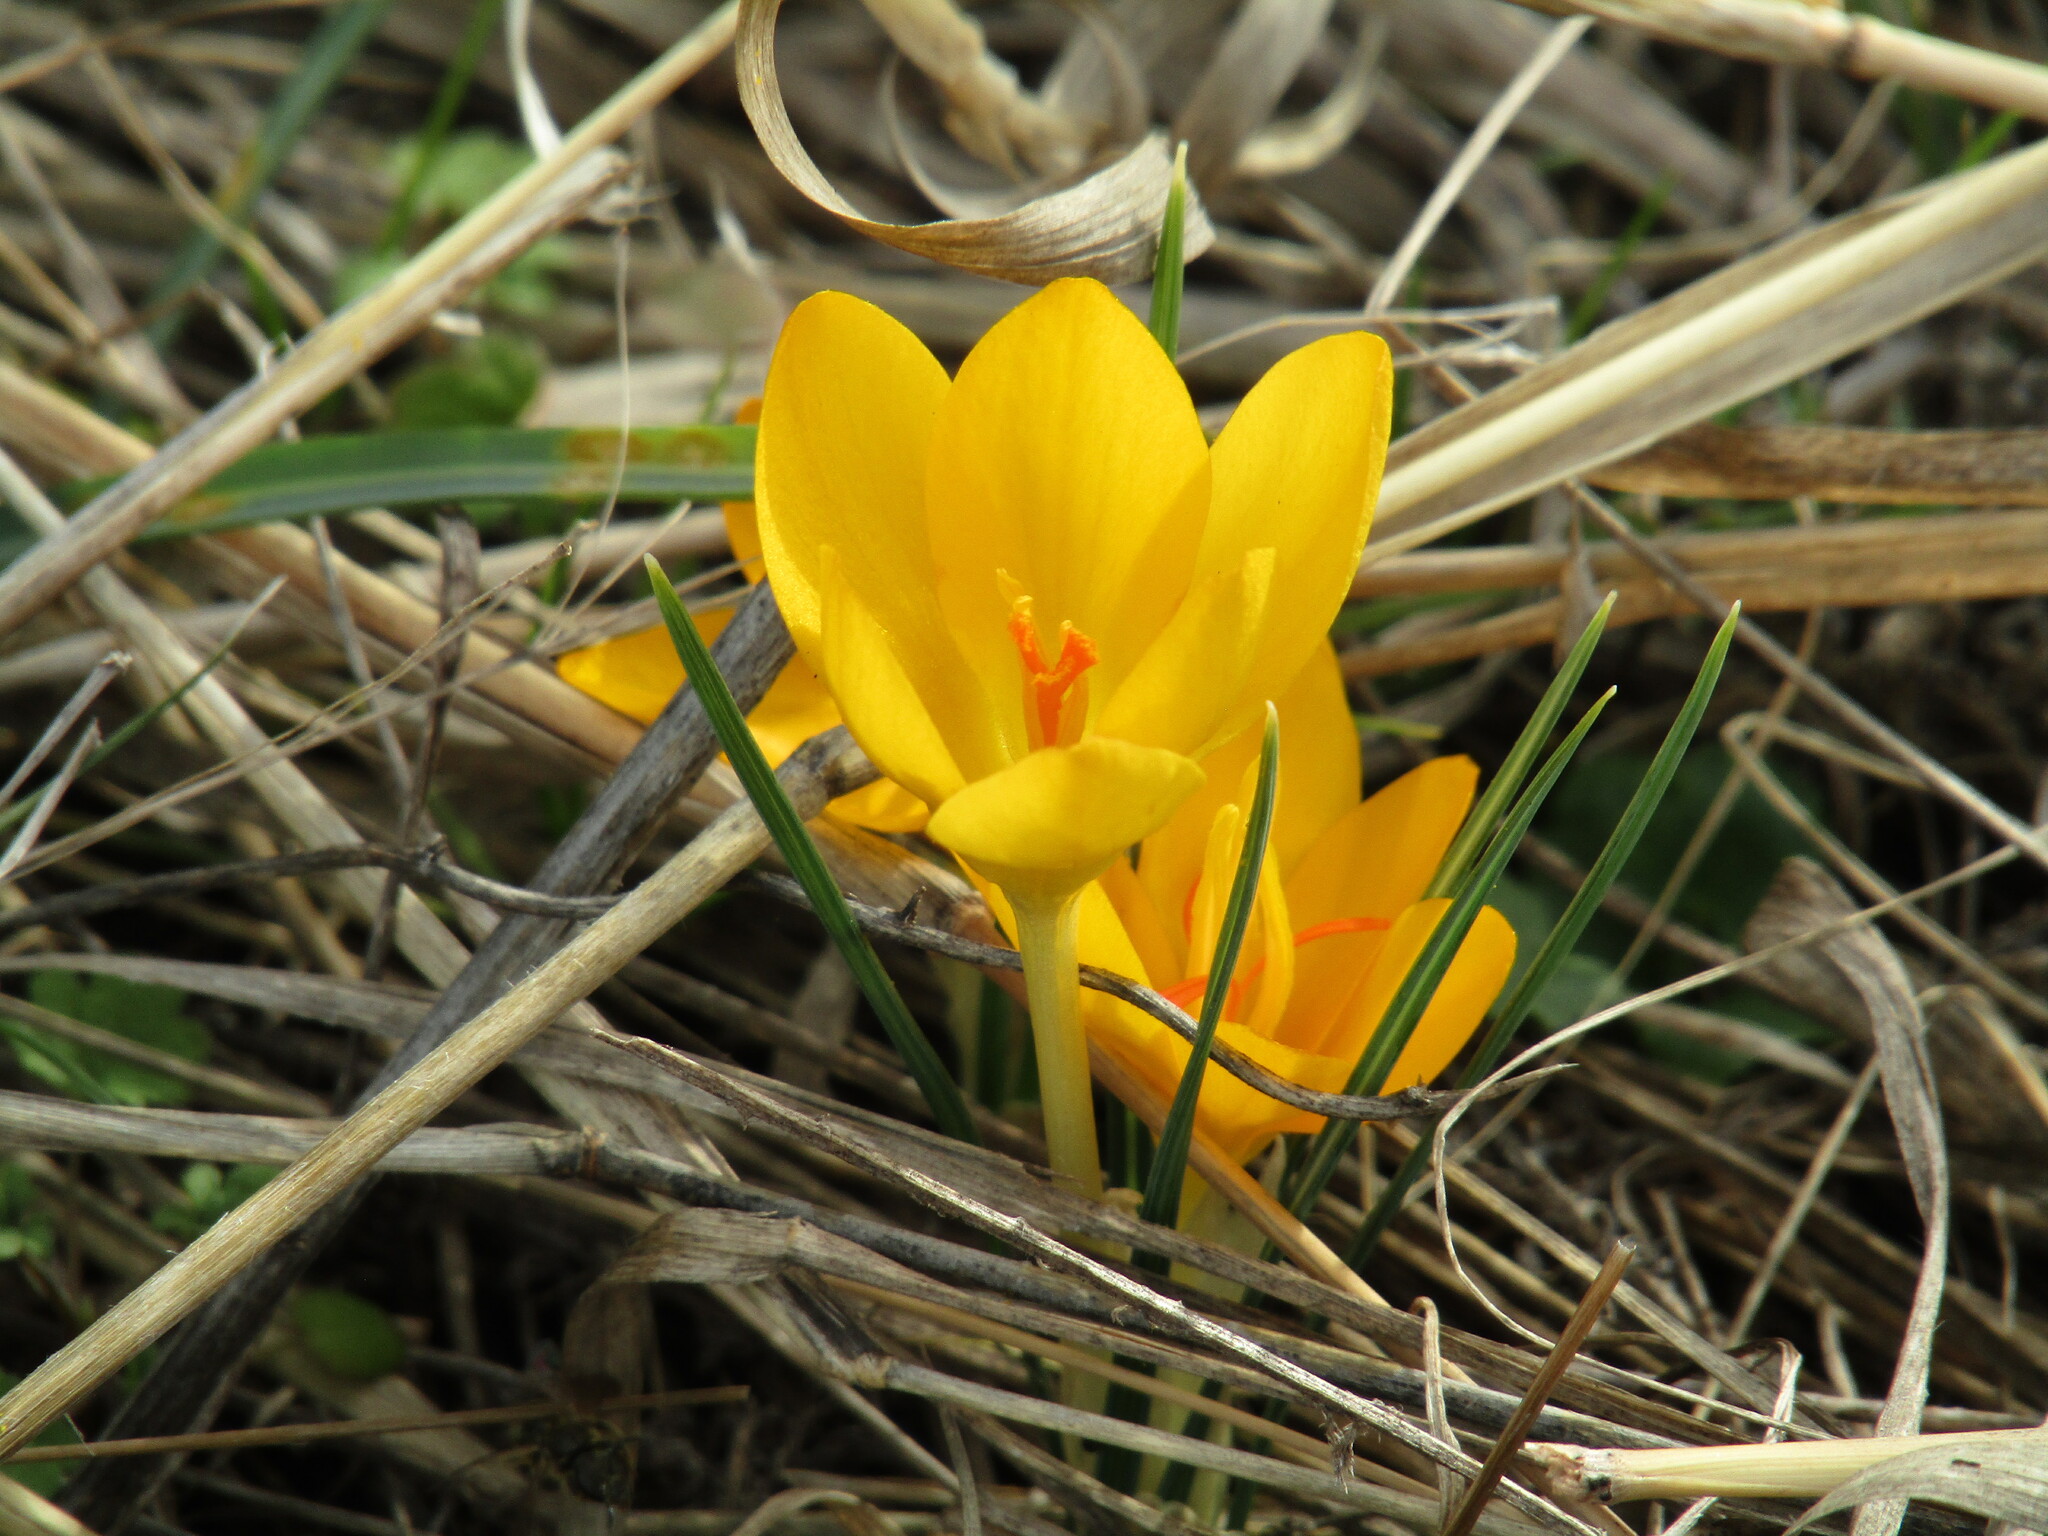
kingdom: Plantae
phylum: Tracheophyta
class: Liliopsida
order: Asparagales
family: Iridaceae
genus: Crocus
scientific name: Crocus chrysanthus
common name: Golden crocus
